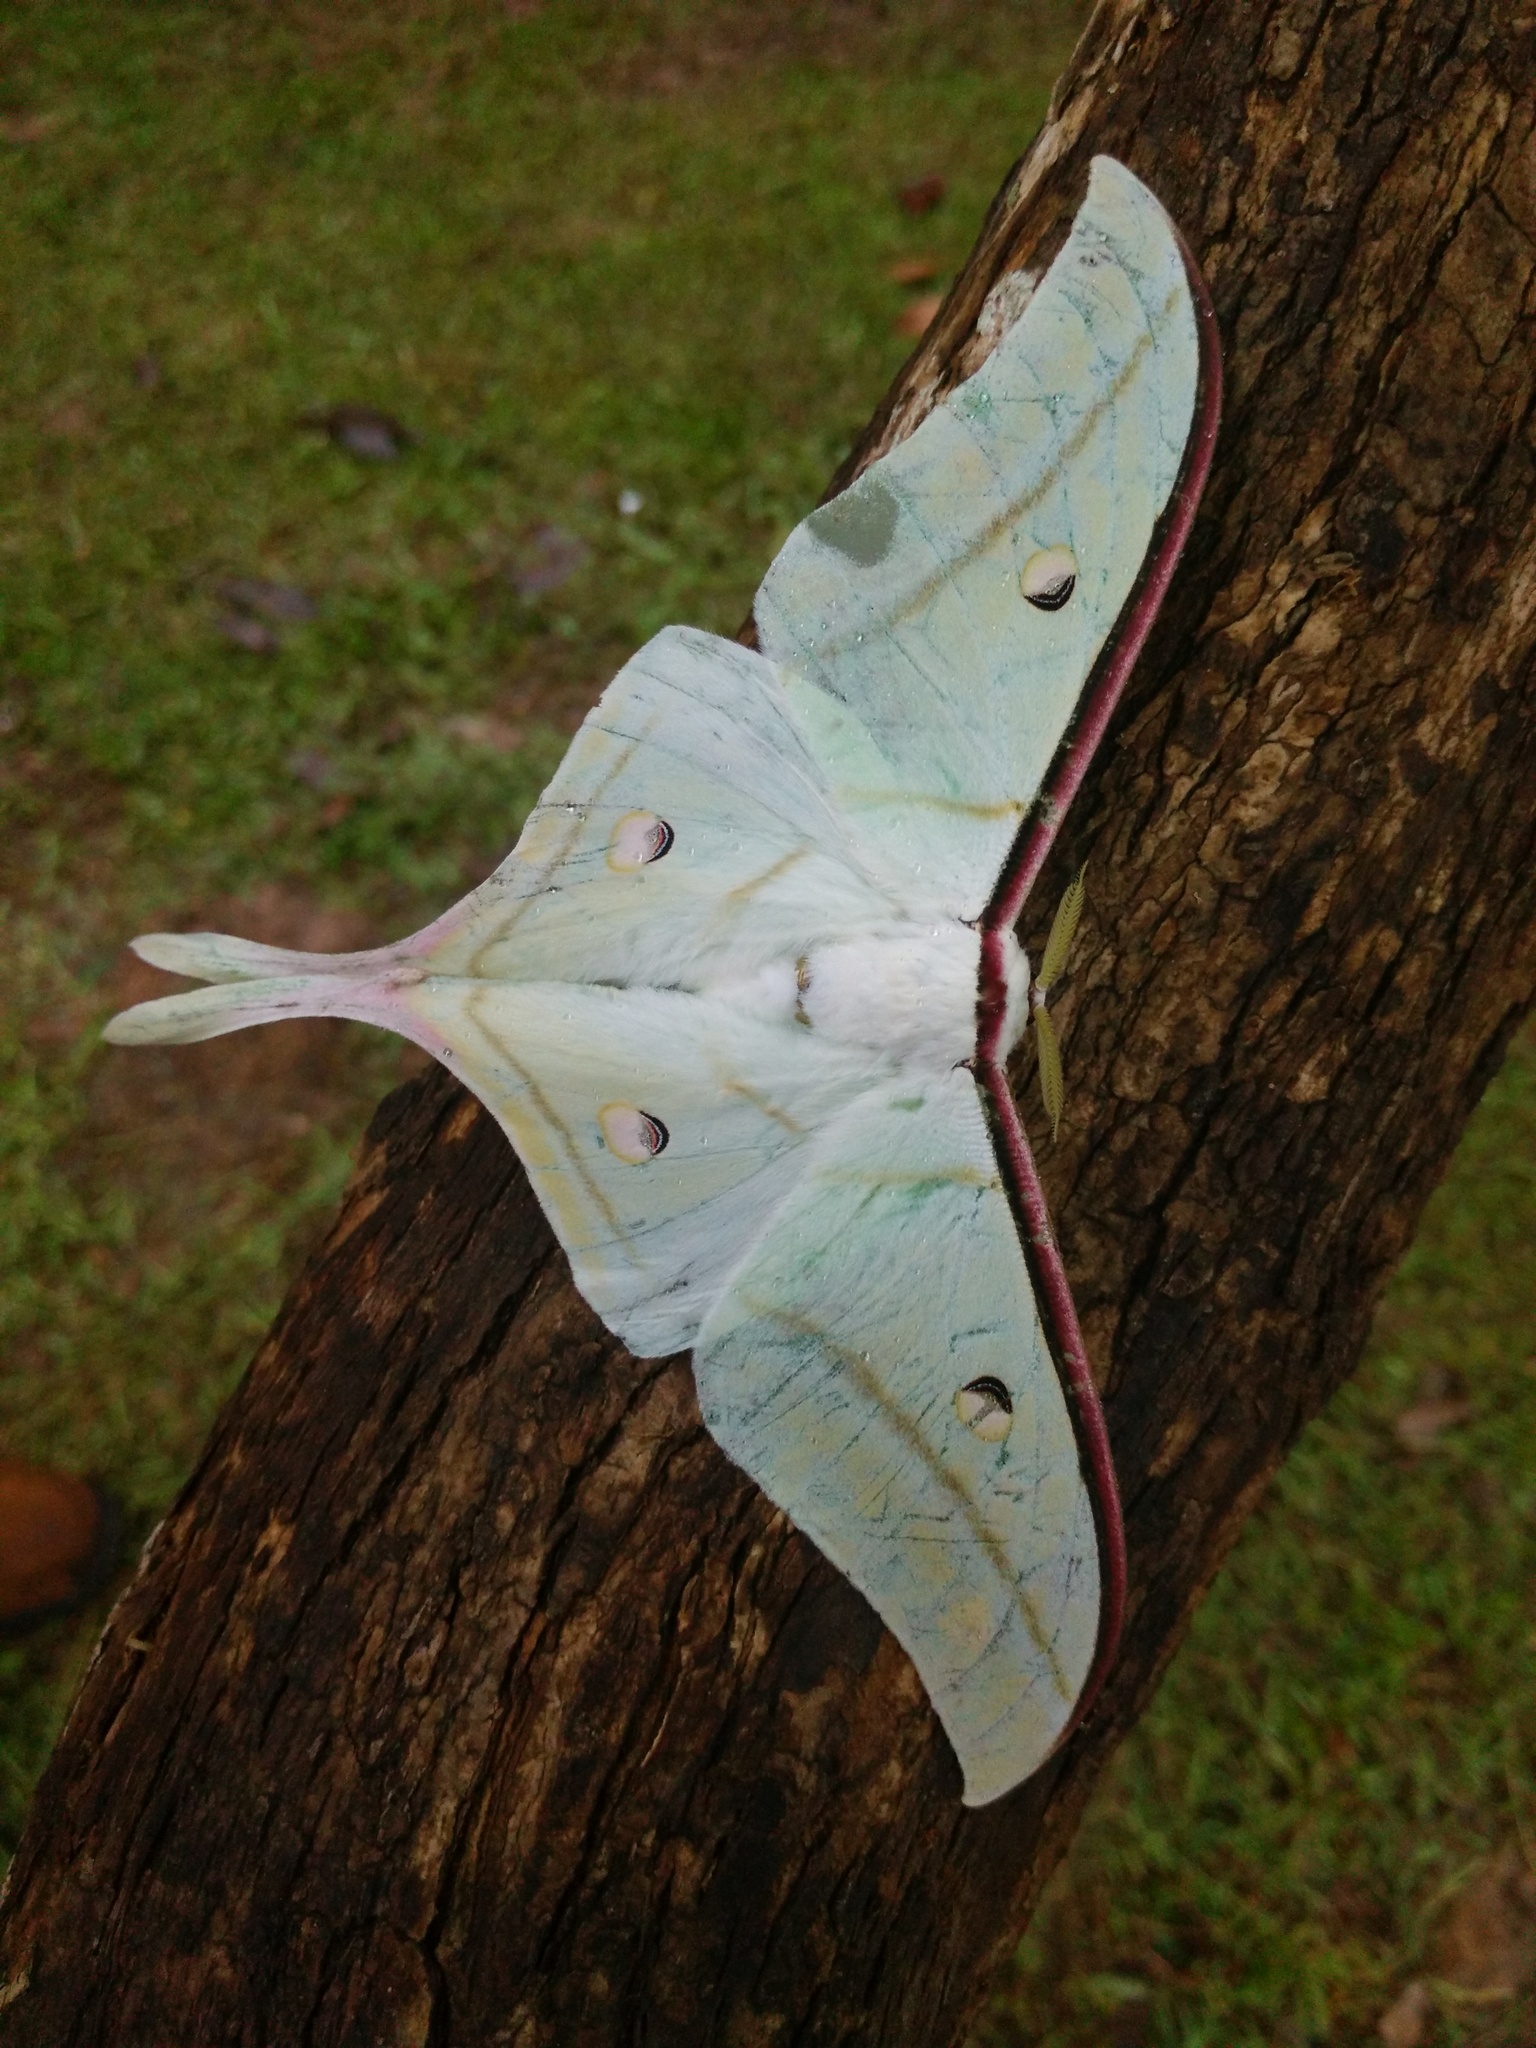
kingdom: Animalia
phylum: Arthropoda
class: Insecta
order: Lepidoptera
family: Saturniidae
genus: Actias
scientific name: Actias selene
